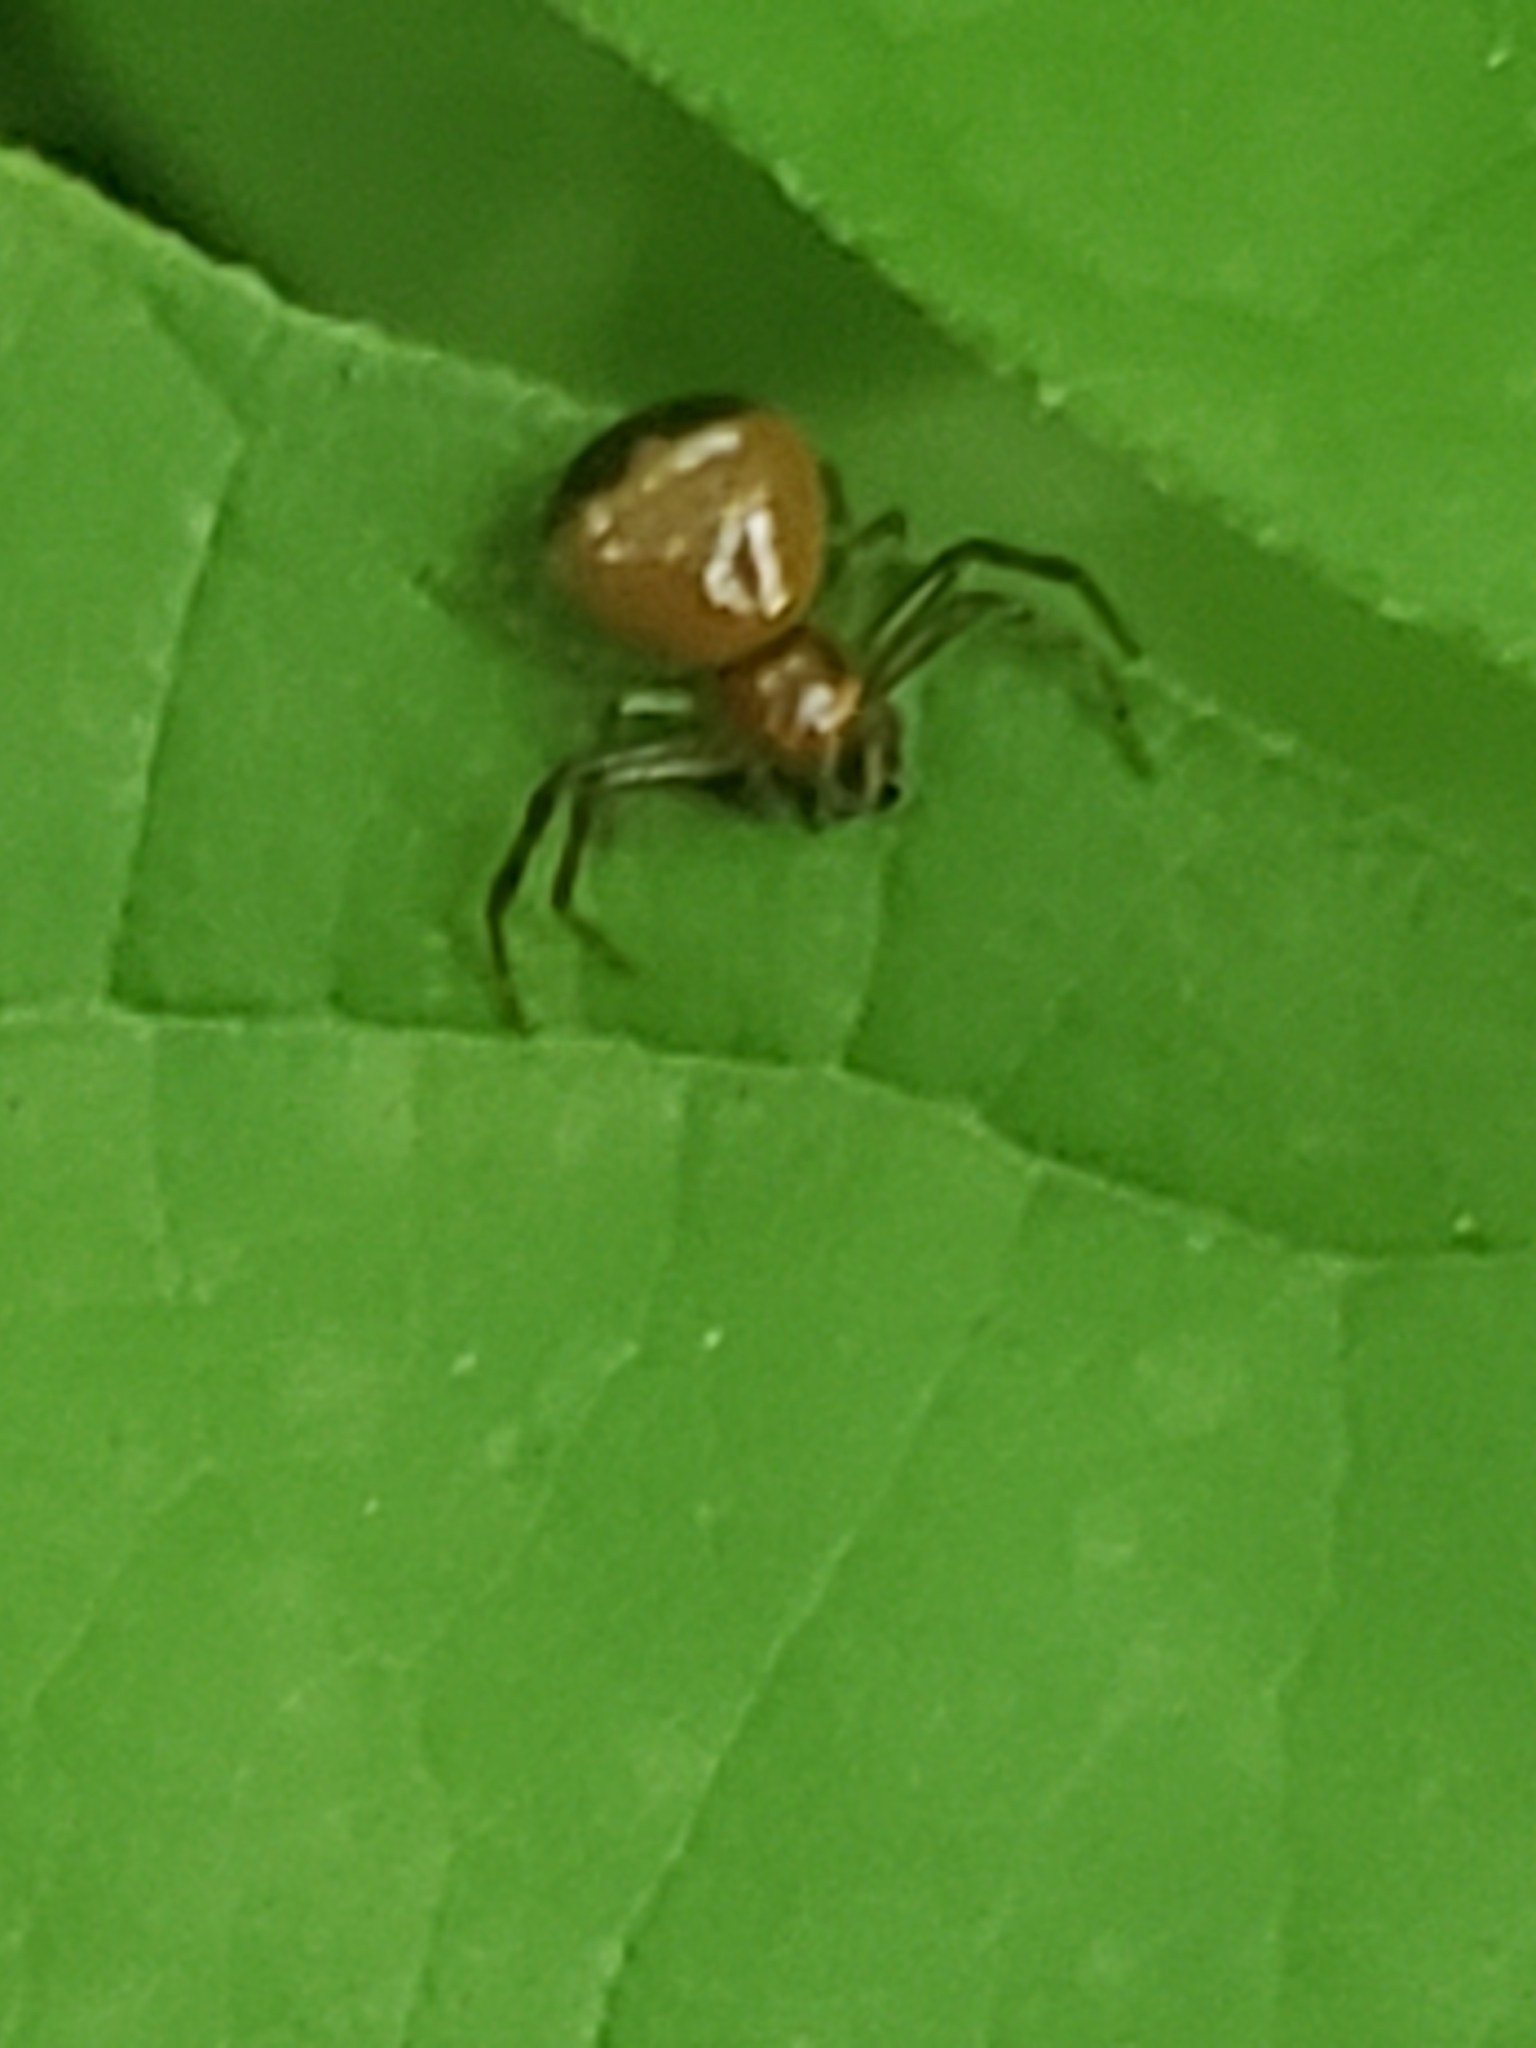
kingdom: Animalia
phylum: Arthropoda
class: Arachnida
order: Araneae
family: Thomisidae
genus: Synema
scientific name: Synema parvulum
